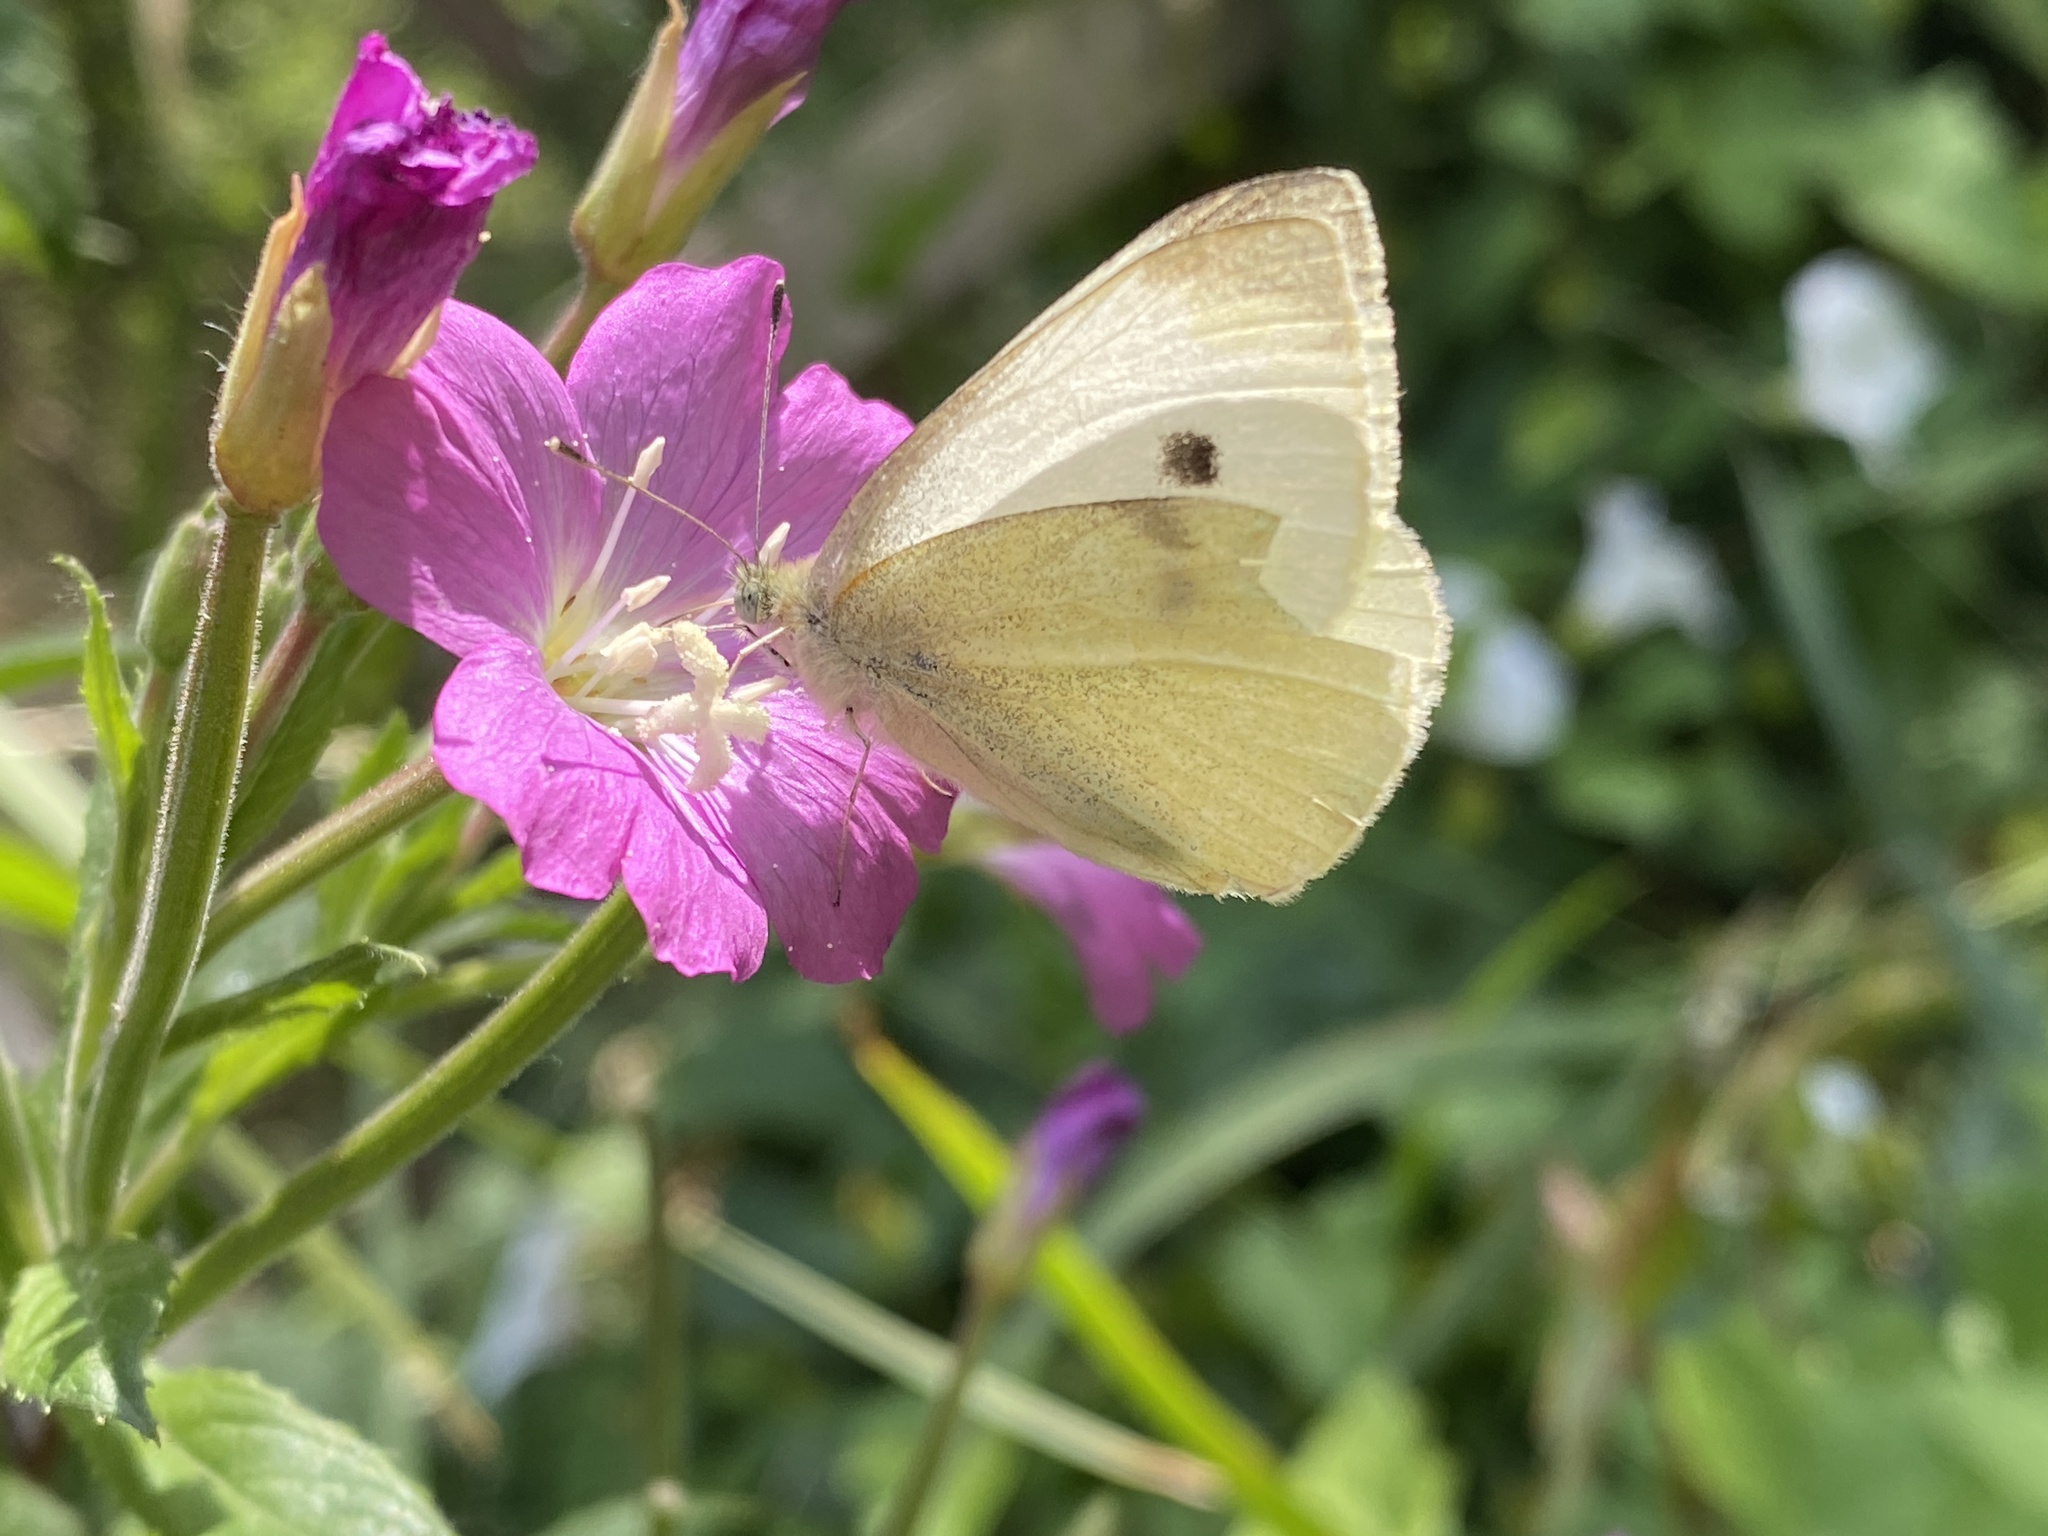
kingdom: Animalia
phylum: Arthropoda
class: Insecta
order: Lepidoptera
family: Pieridae
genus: Pieris
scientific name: Pieris rapae
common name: Small white
